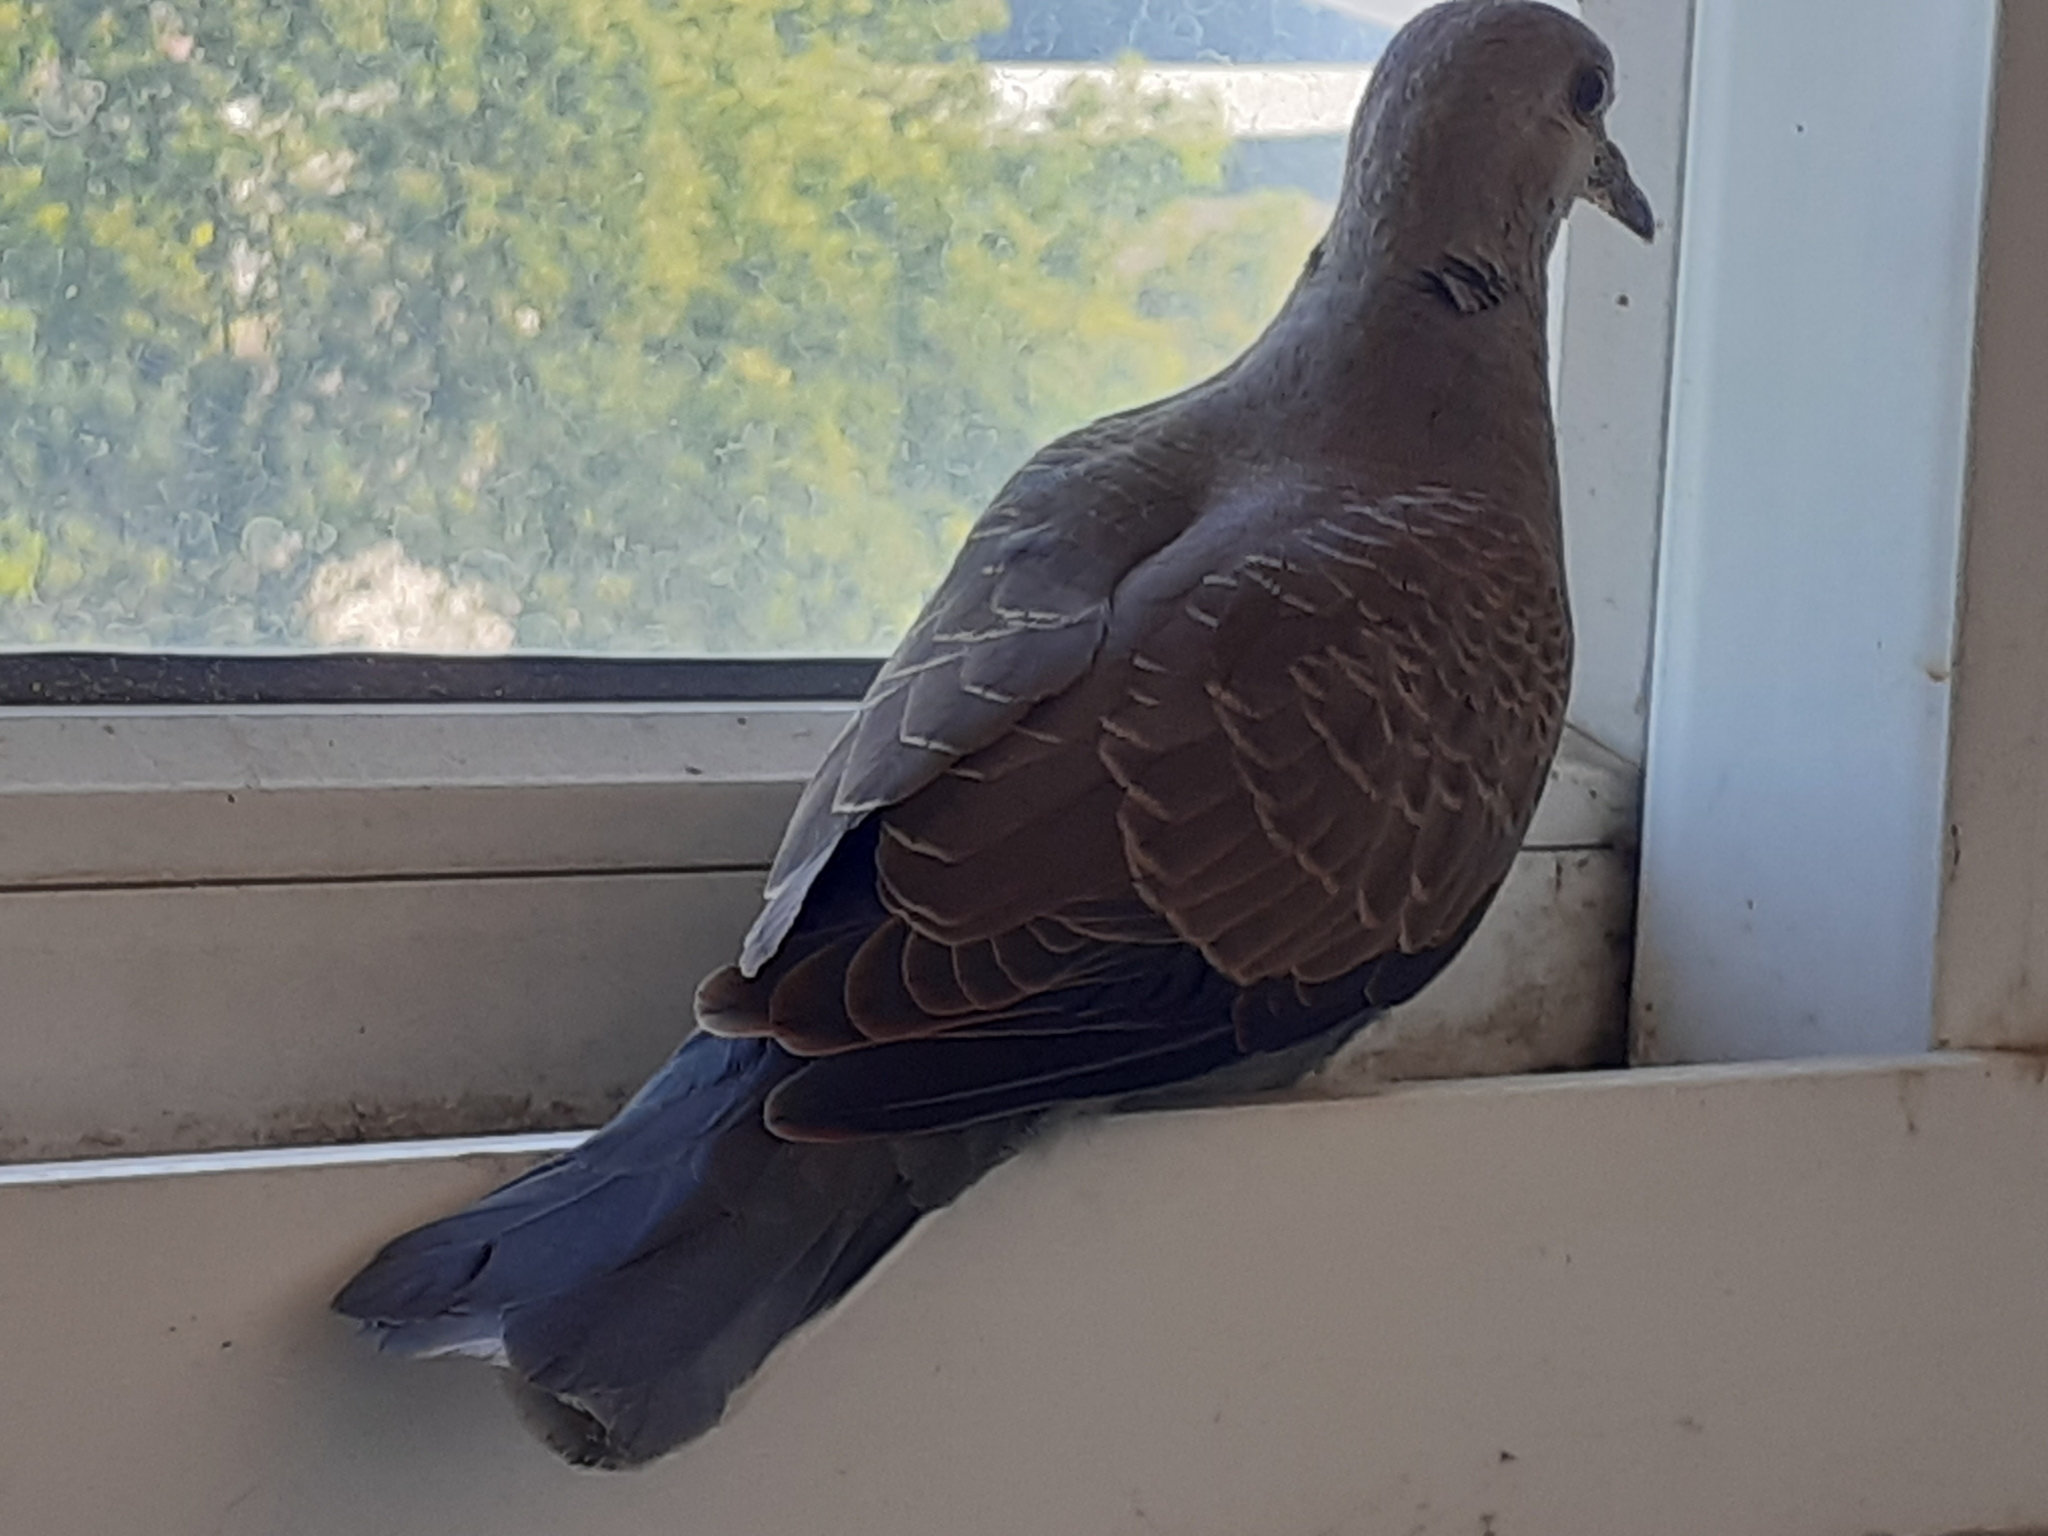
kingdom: Animalia
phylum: Chordata
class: Aves
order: Columbiformes
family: Columbidae
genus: Streptopelia
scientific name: Streptopelia orientalis
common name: Oriental turtle dove
